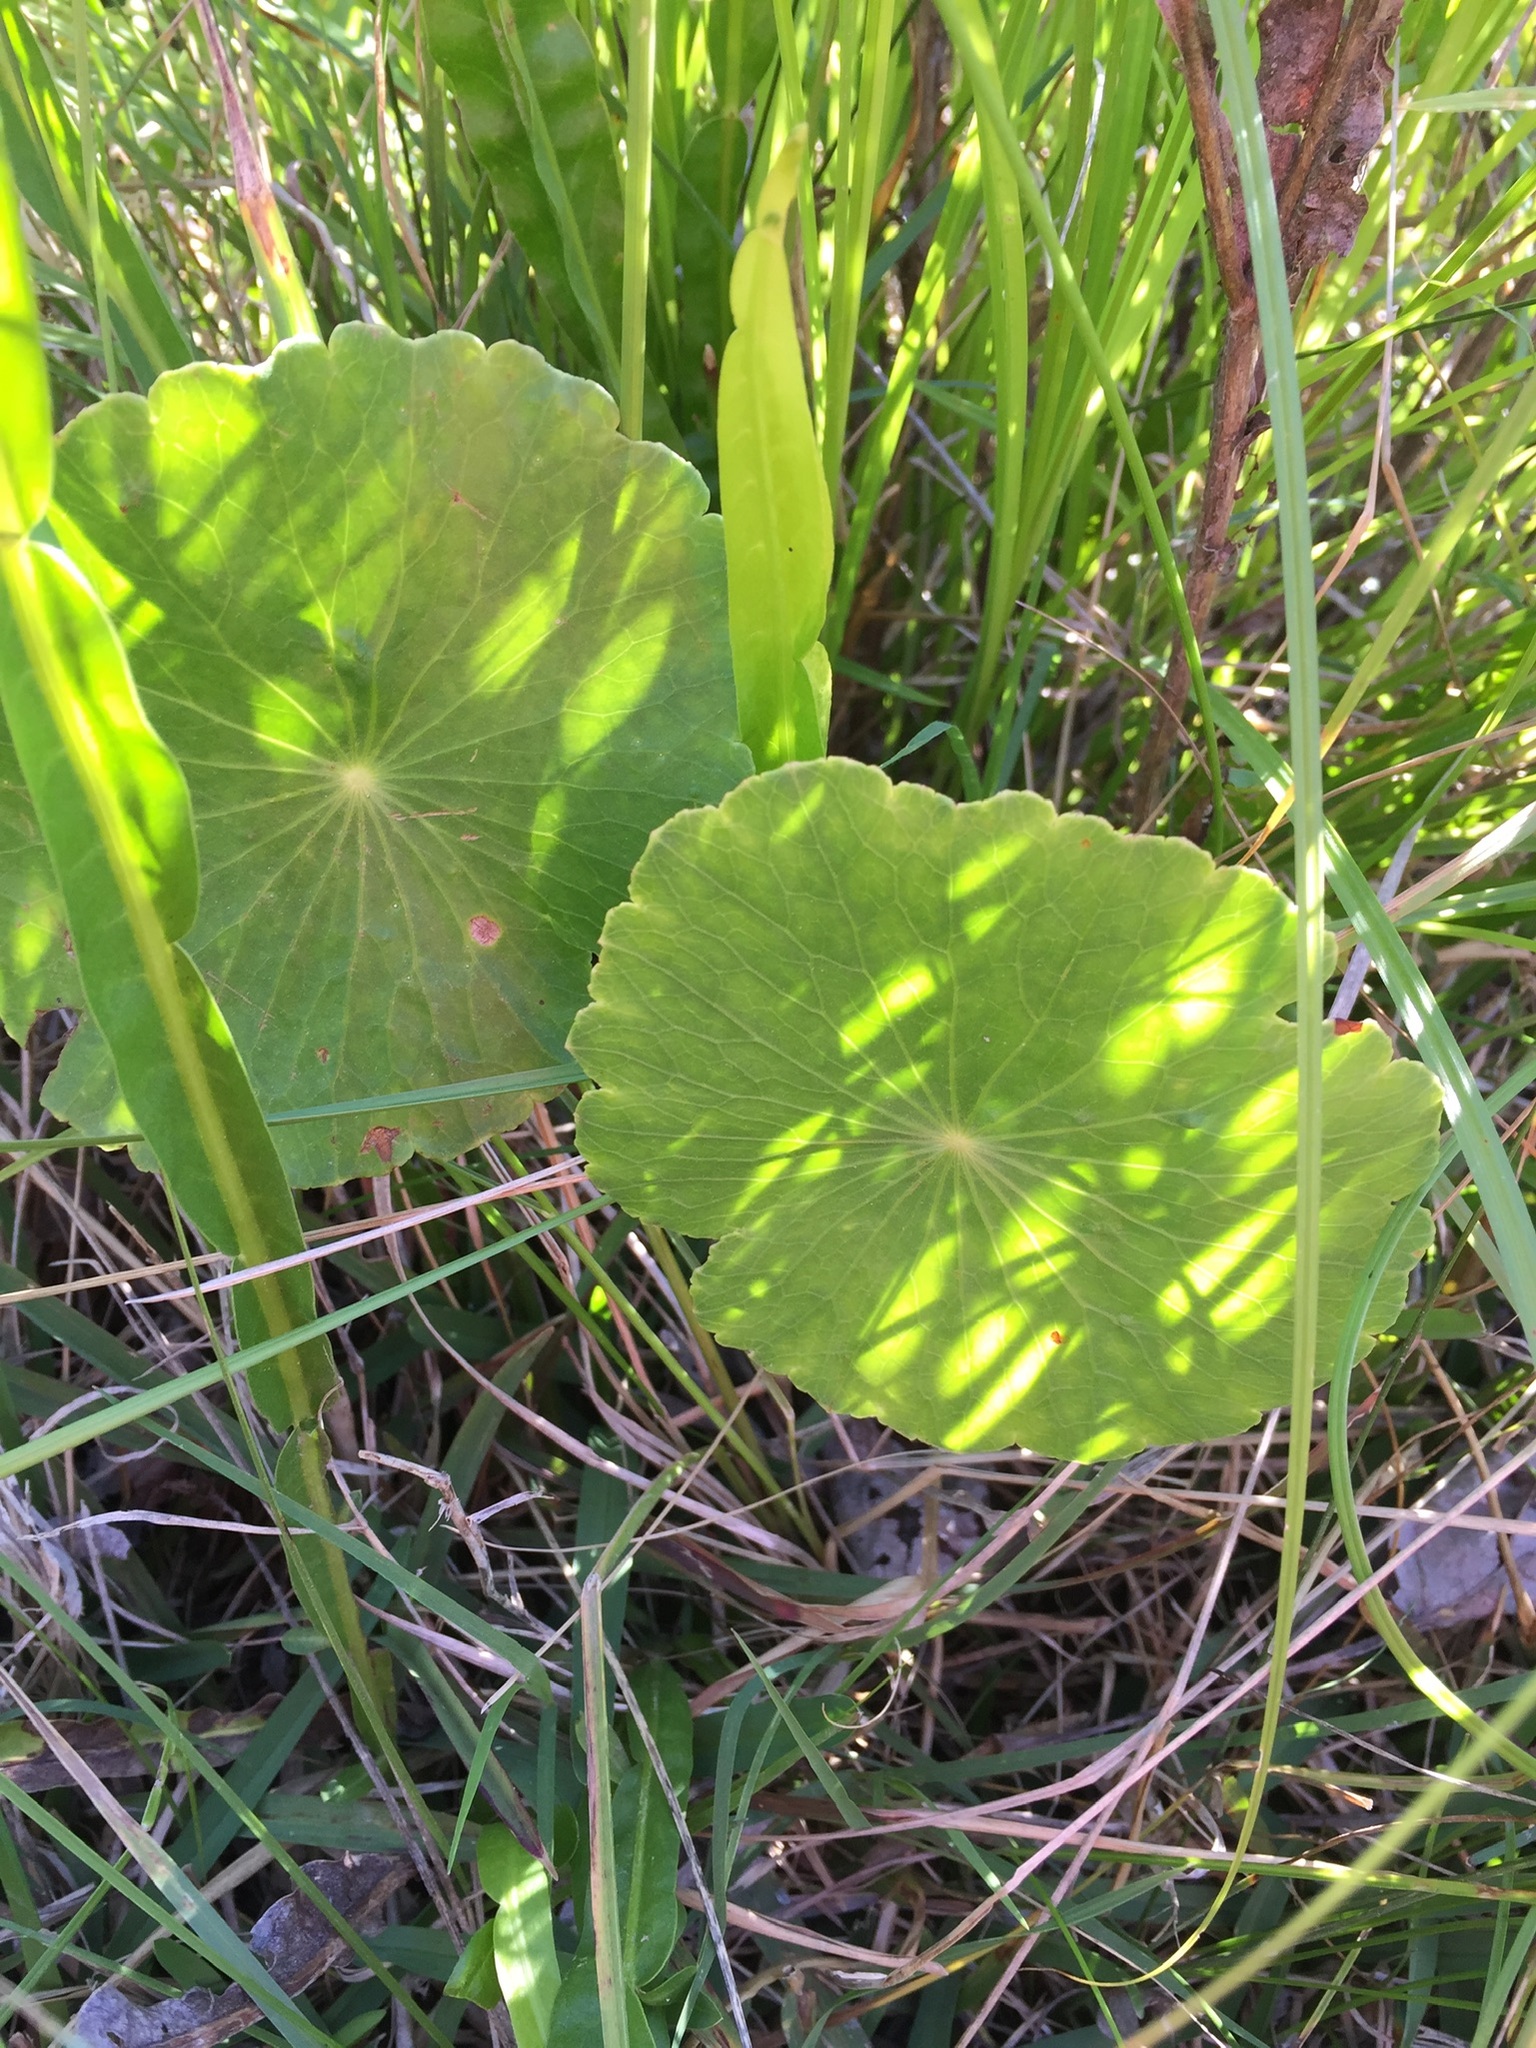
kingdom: Plantae
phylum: Tracheophyta
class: Magnoliopsida
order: Apiales
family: Araliaceae
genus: Hydrocotyle
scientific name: Hydrocotyle bonariensis
